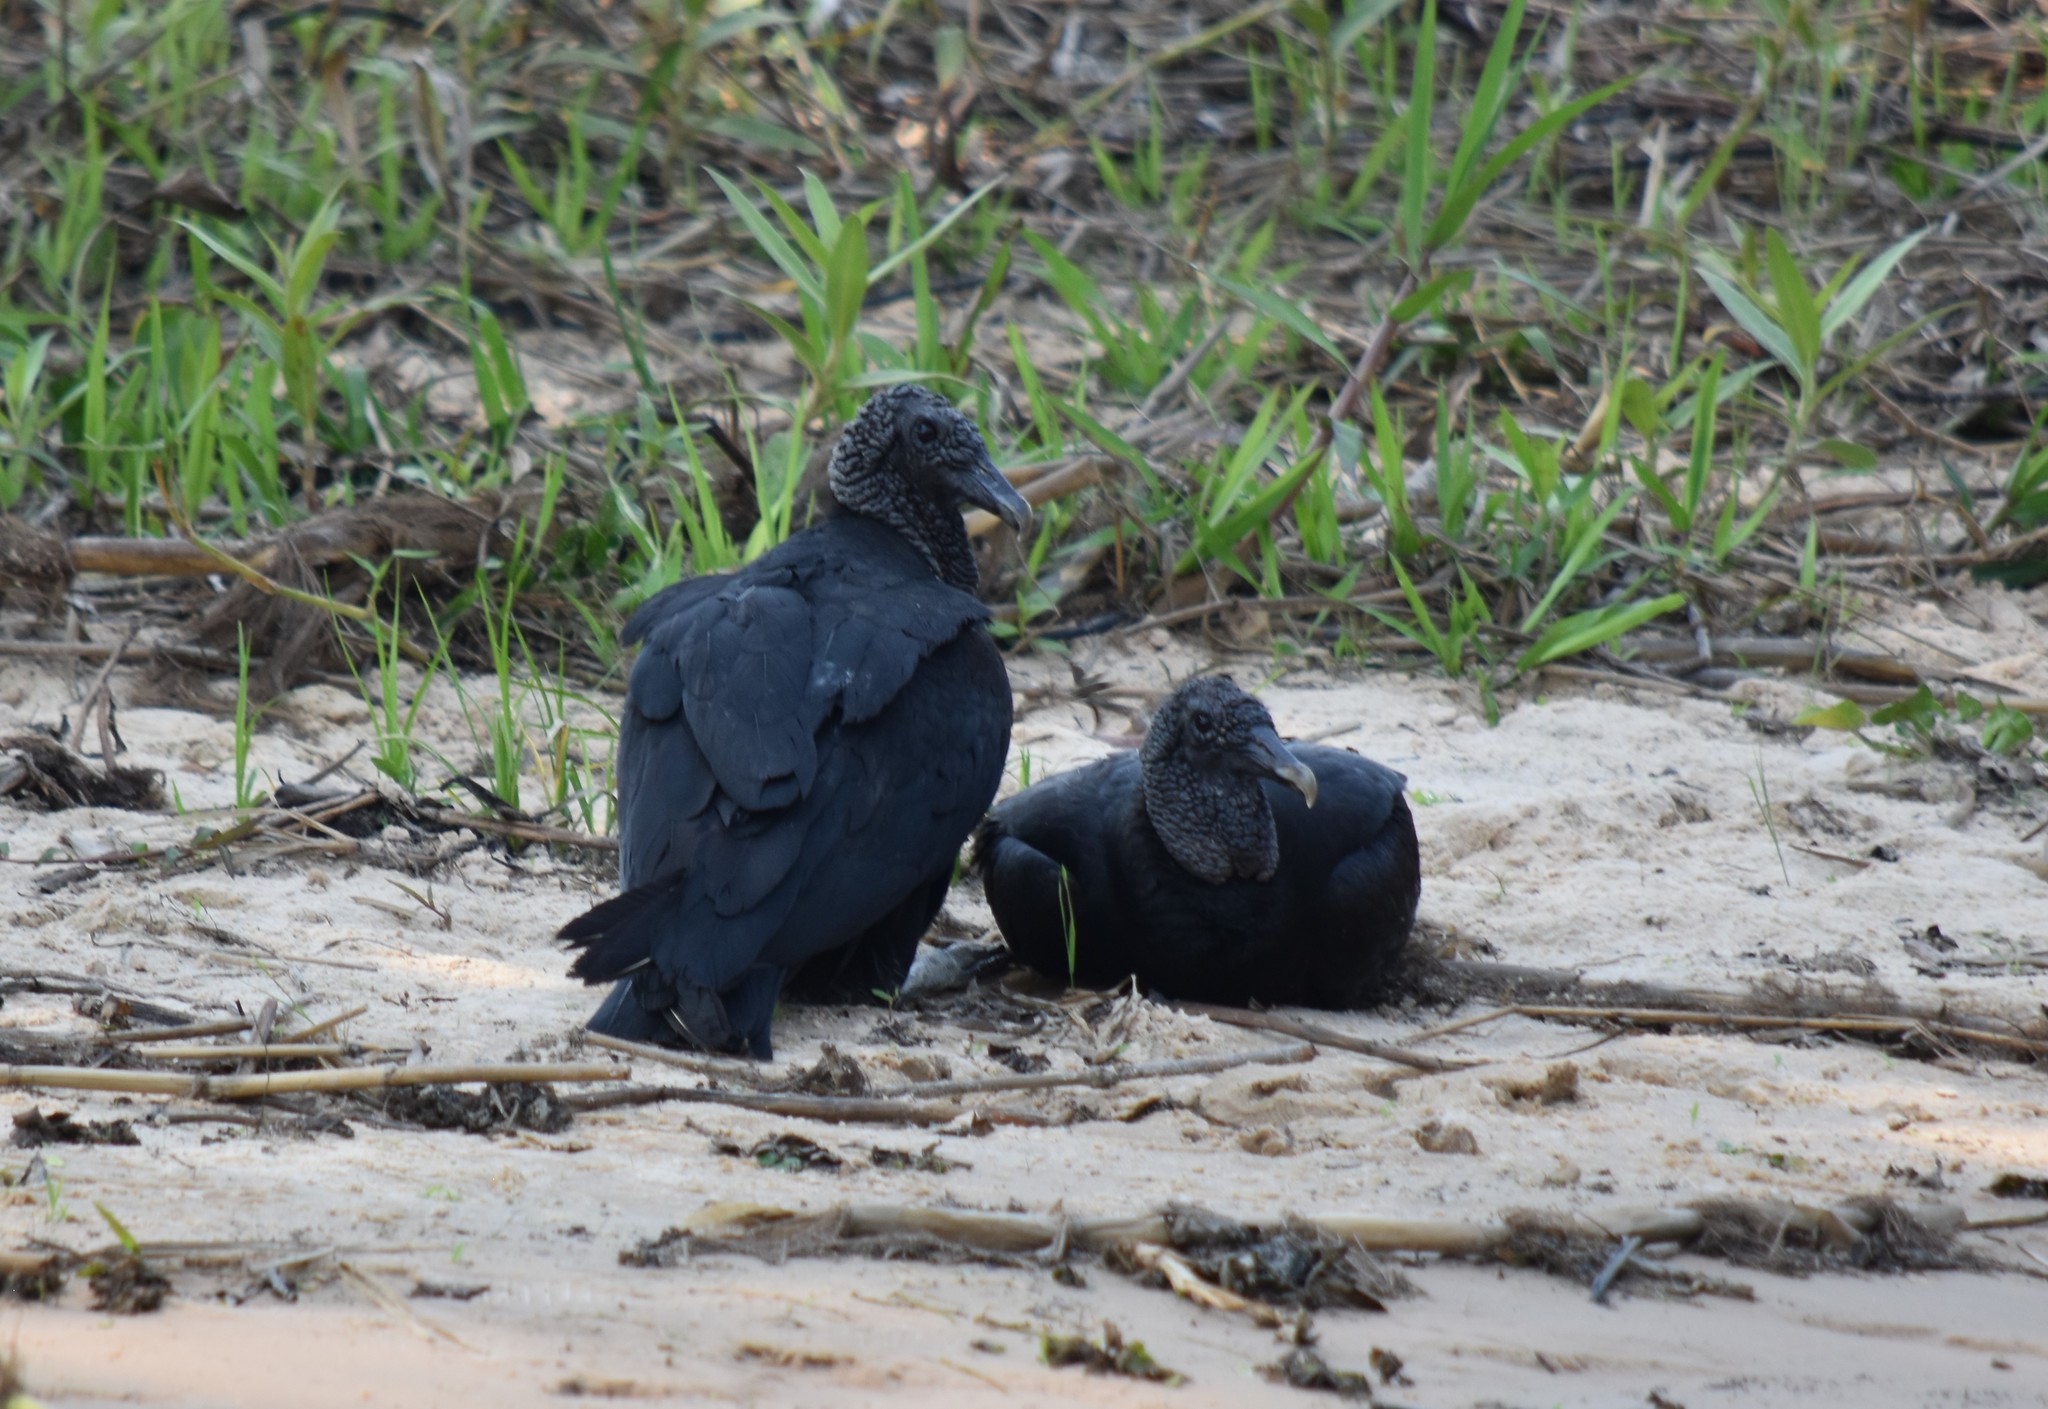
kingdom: Animalia
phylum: Chordata
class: Aves
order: Accipitriformes
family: Cathartidae
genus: Coragyps
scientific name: Coragyps atratus
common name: Black vulture
